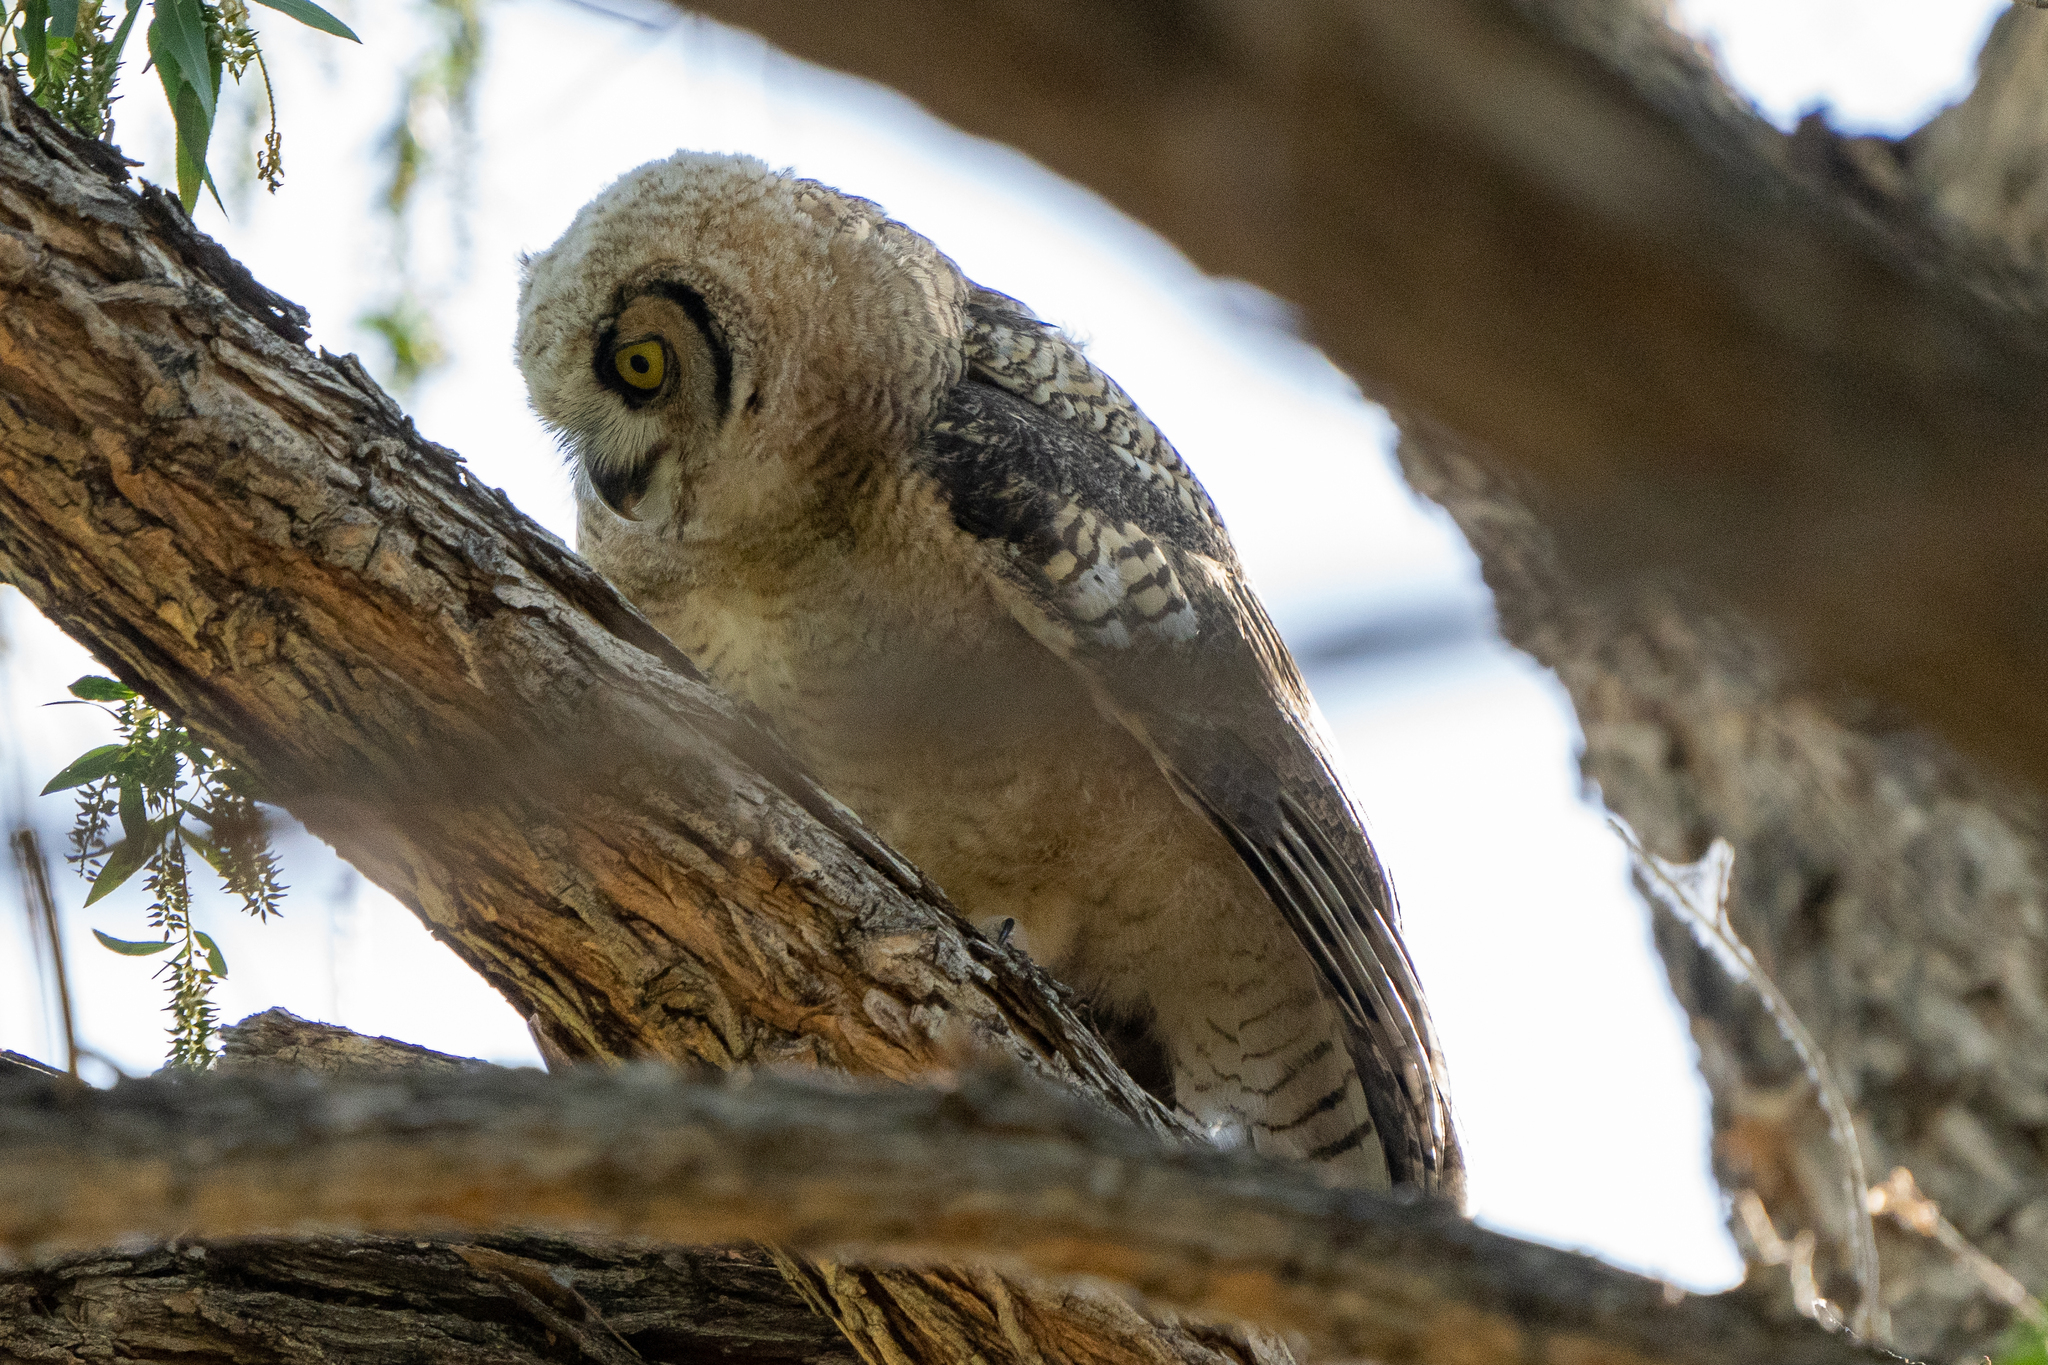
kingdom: Animalia
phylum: Chordata
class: Aves
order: Strigiformes
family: Strigidae
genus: Bubo
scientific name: Bubo virginianus
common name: Great horned owl
